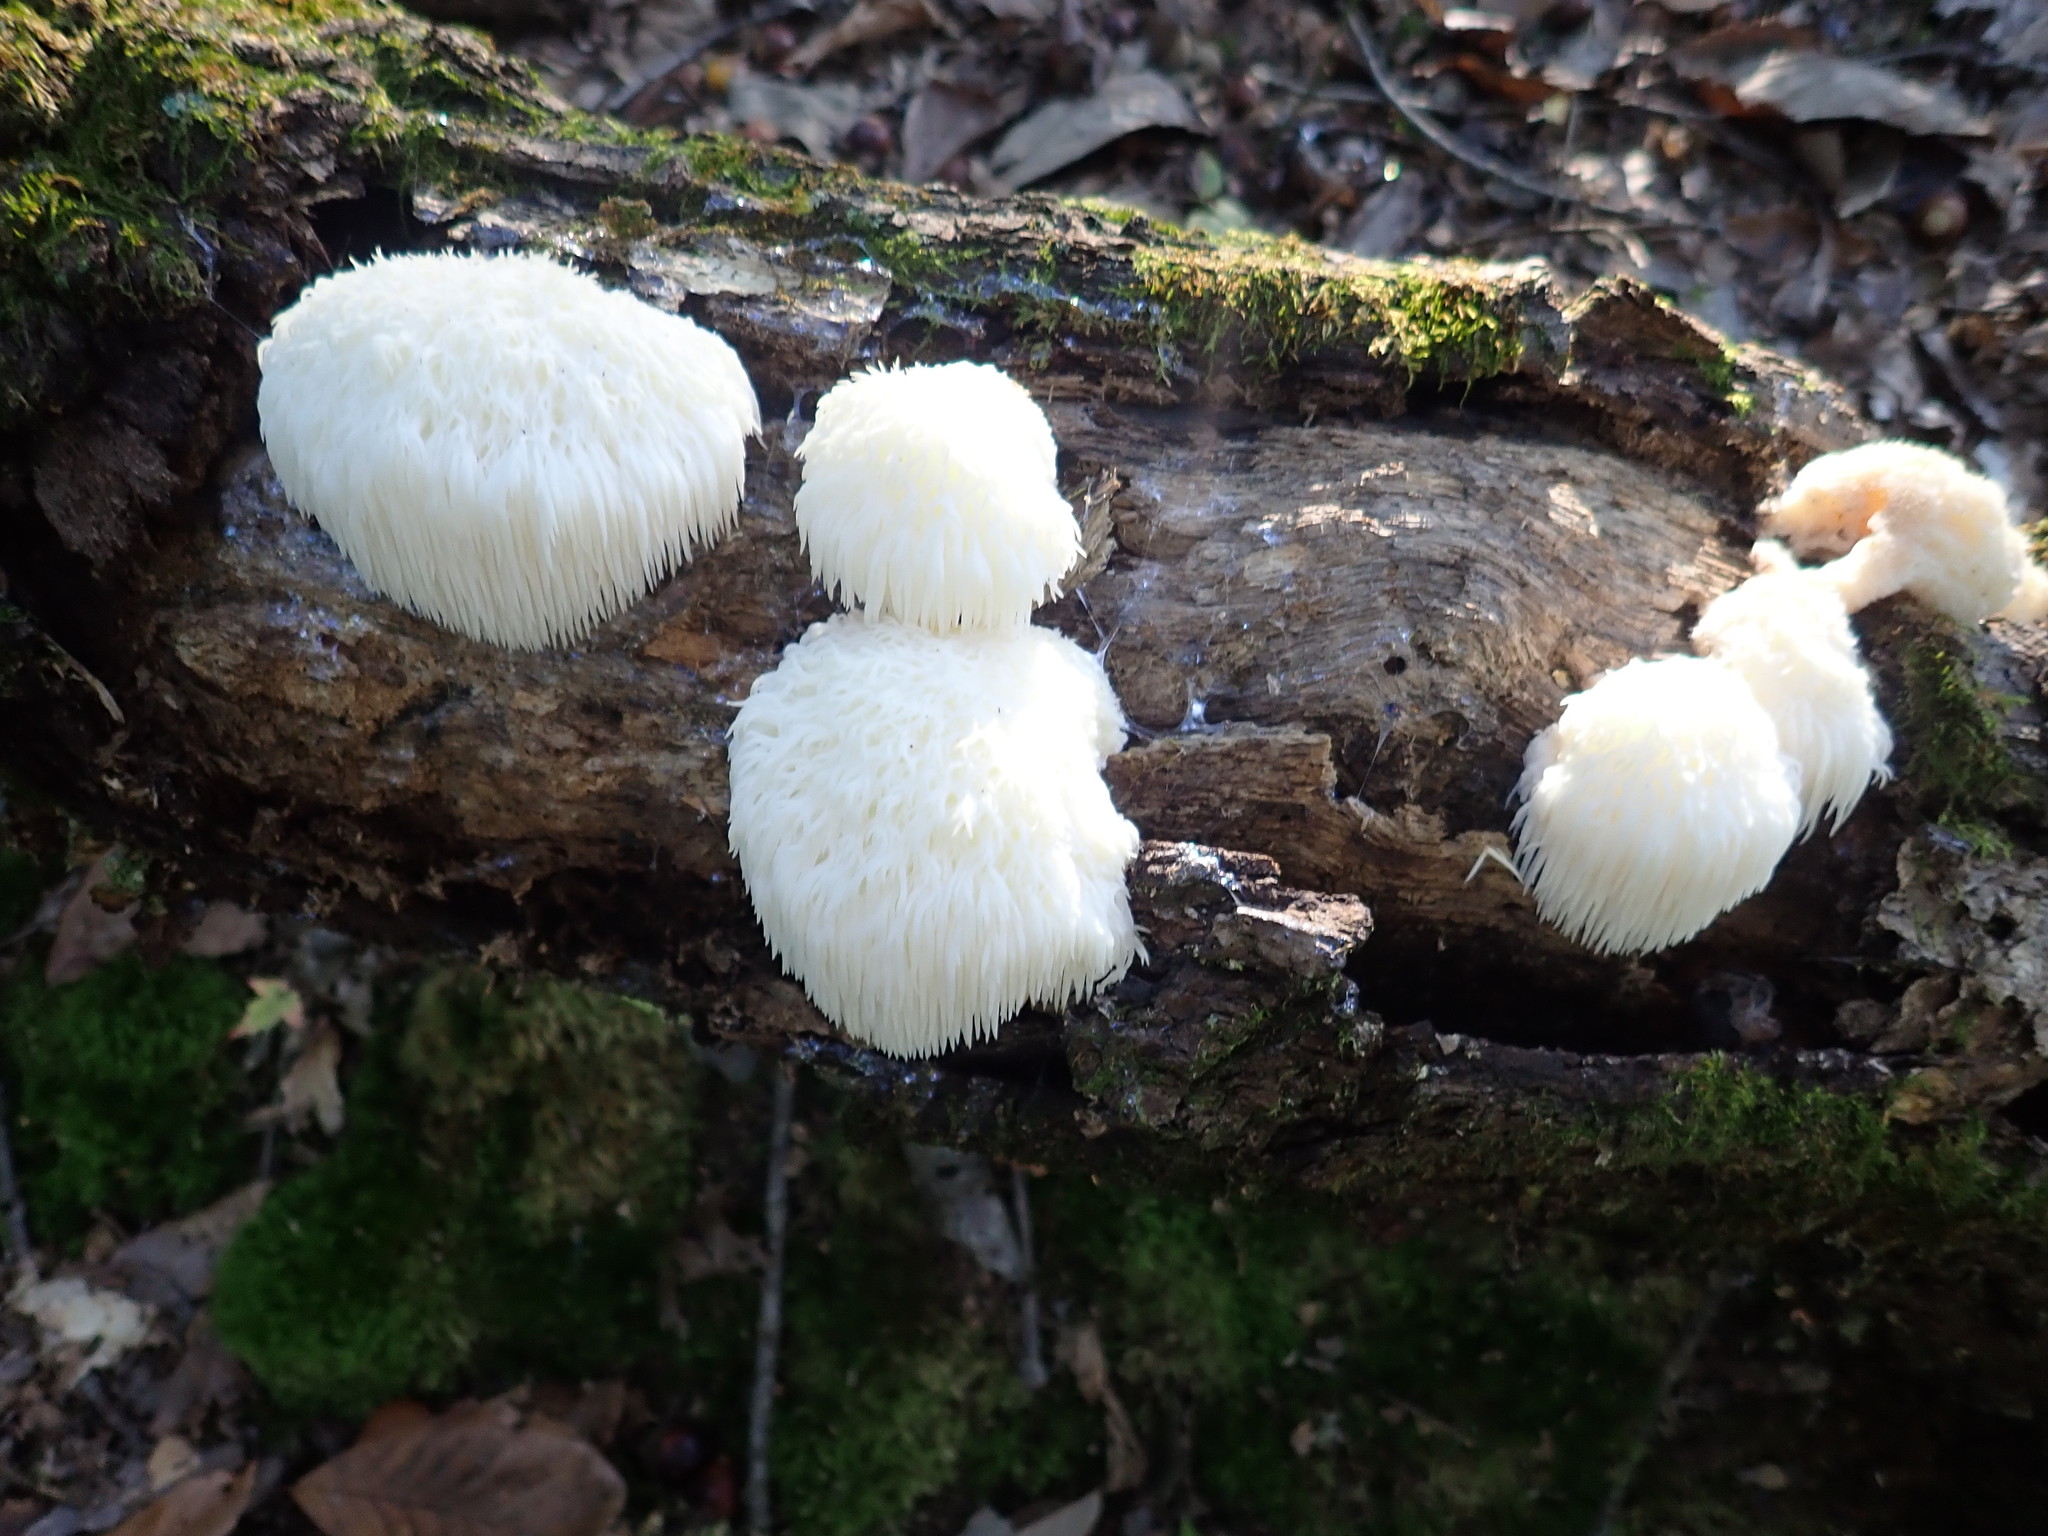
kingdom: Fungi
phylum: Basidiomycota
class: Agaricomycetes
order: Russulales
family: Hericiaceae
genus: Hericium
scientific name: Hericium erinaceus
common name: Bearded tooth
